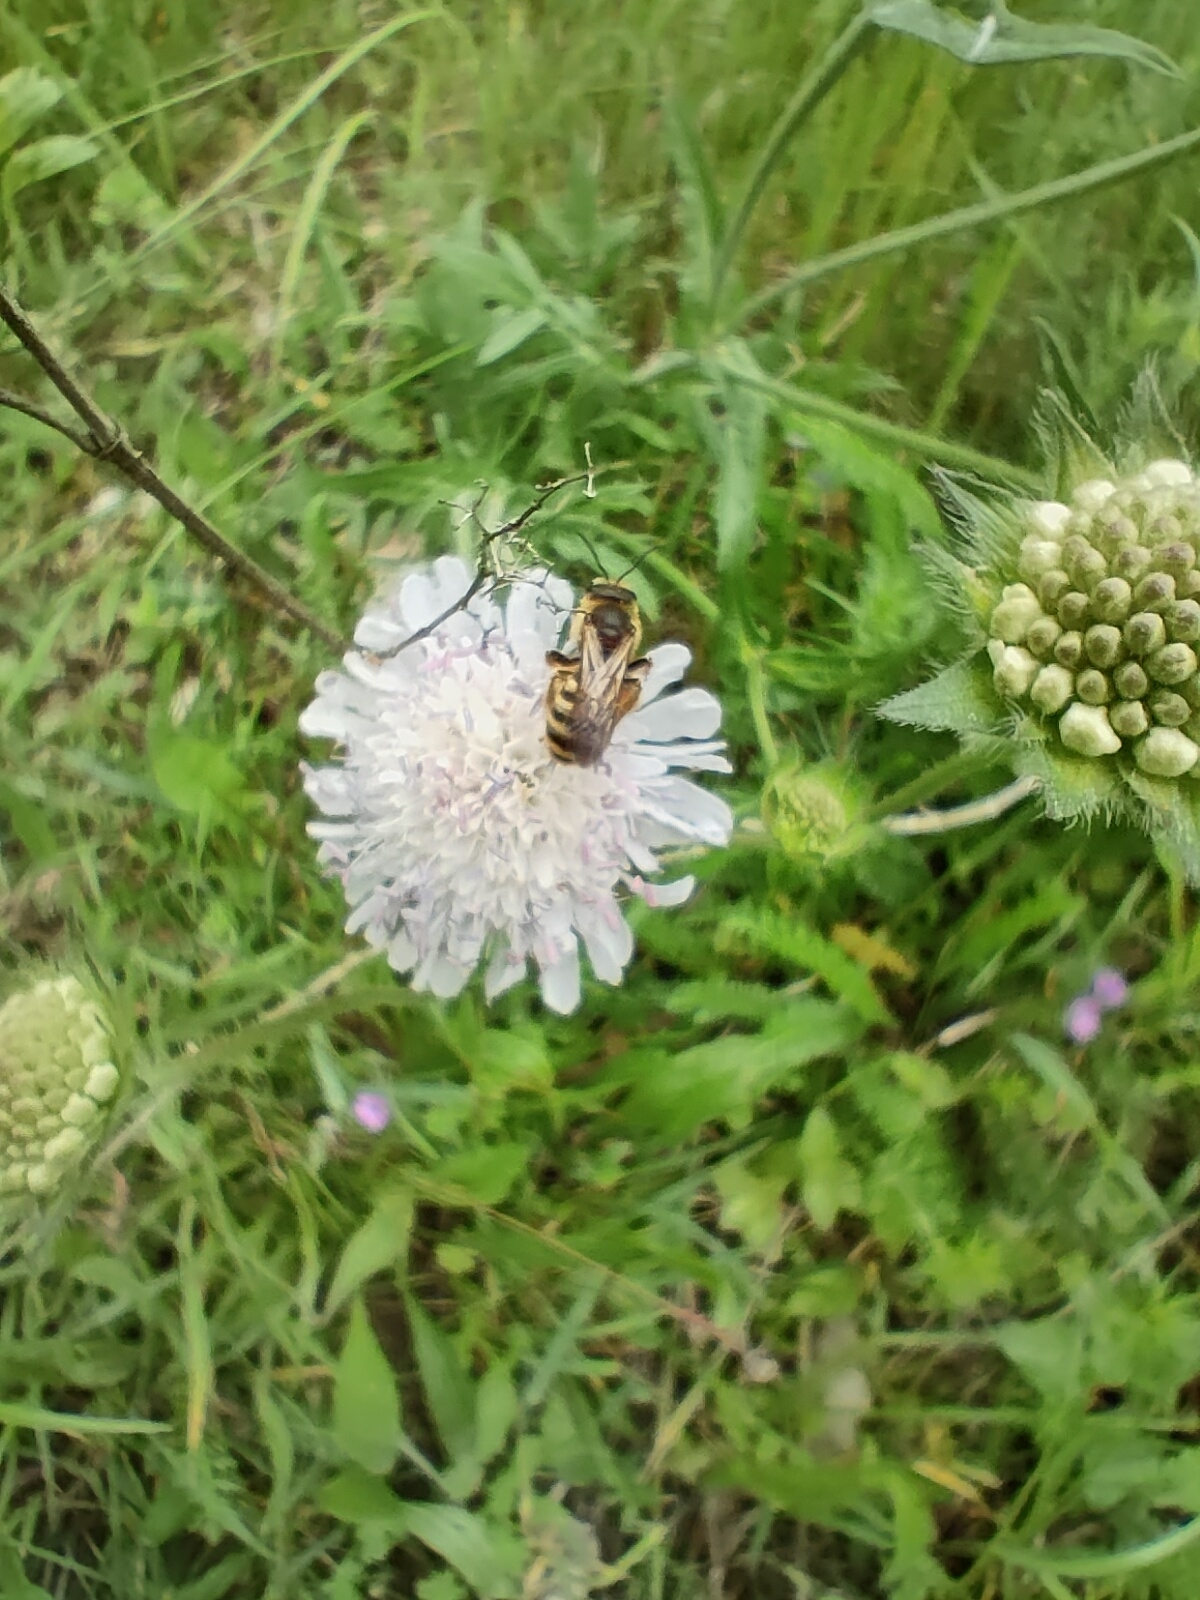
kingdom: Animalia
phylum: Arthropoda
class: Insecta
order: Hymenoptera
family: Halictidae
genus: Halictus
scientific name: Halictus scabiosae
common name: Great banded furrow bee
